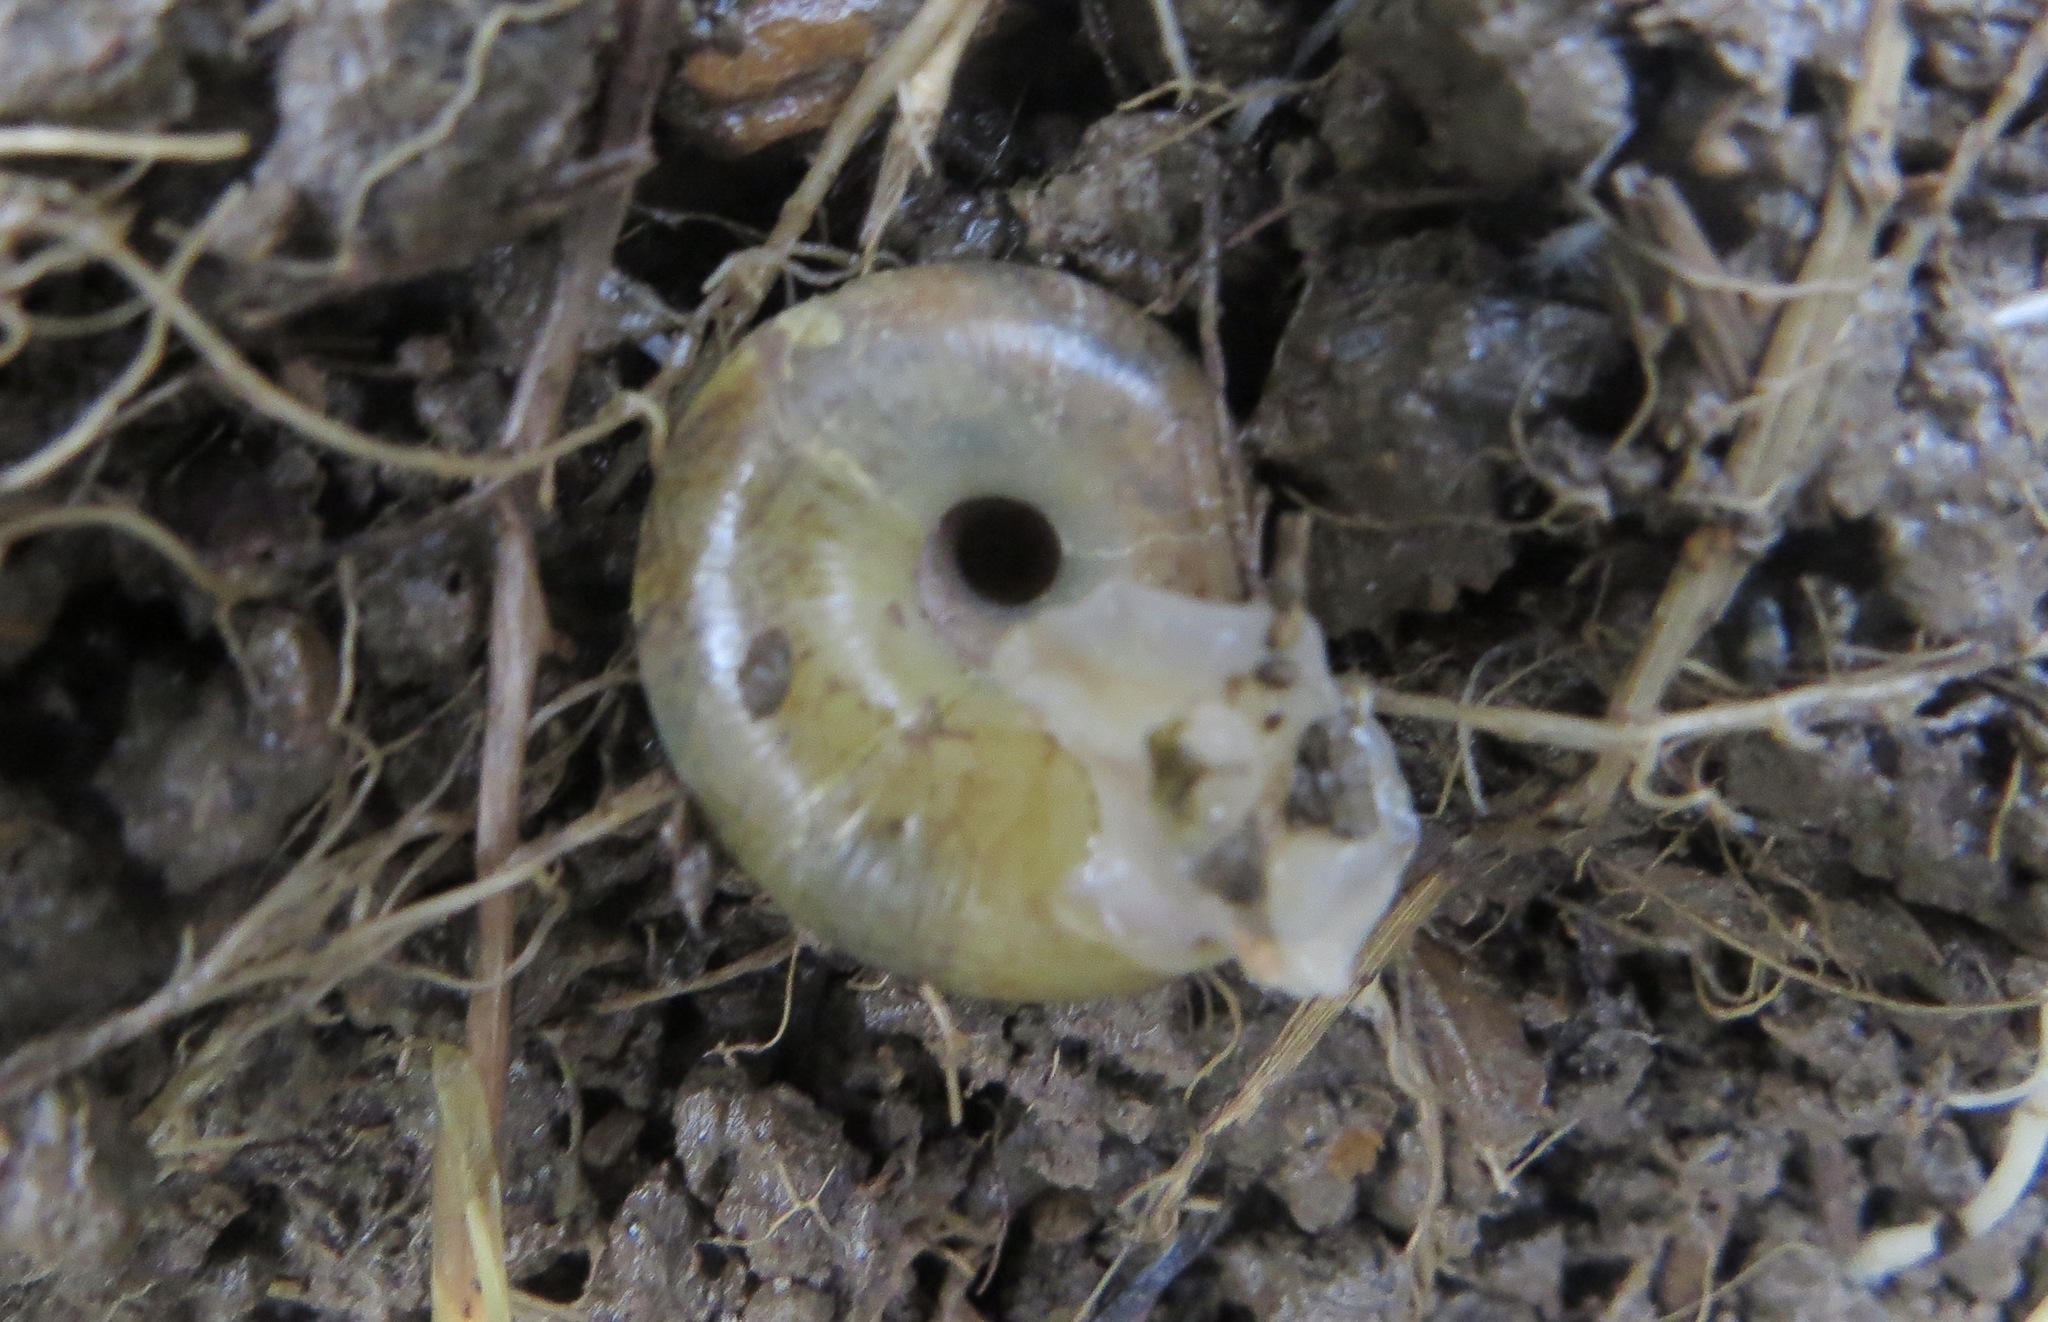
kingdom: Animalia
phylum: Mollusca
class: Gastropoda
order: Stylommatophora
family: Haplotrematidae
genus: Haplotrema
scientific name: Haplotrema minimum
